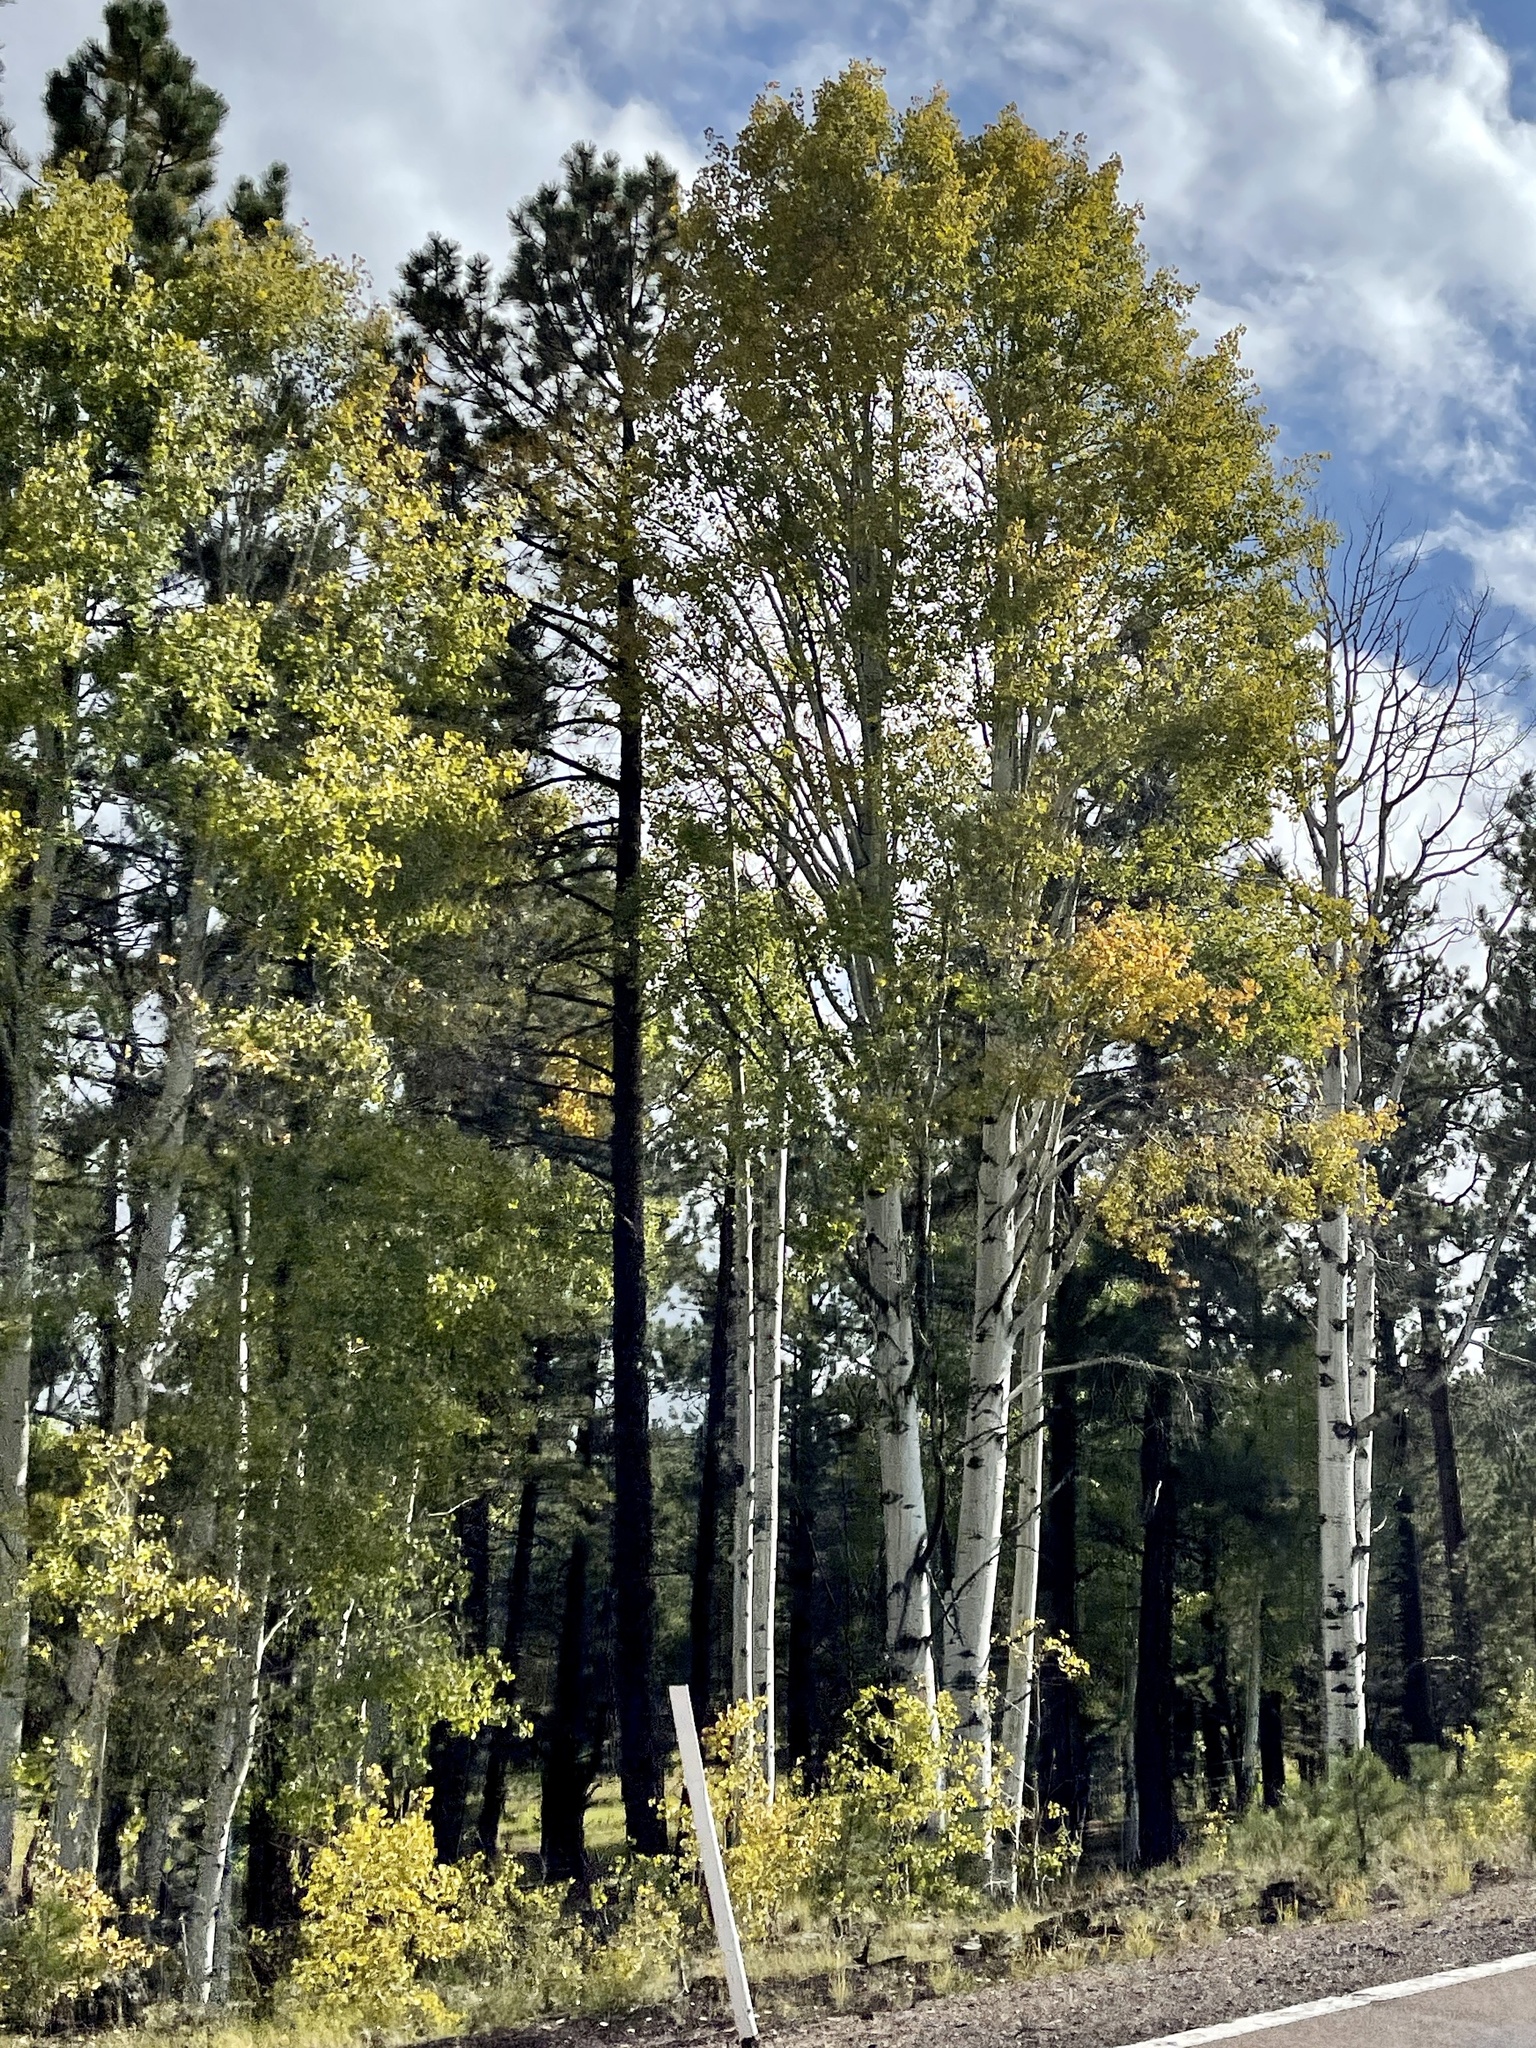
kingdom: Plantae
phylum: Tracheophyta
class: Magnoliopsida
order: Malpighiales
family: Salicaceae
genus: Populus
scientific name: Populus tremuloides
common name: Quaking aspen
